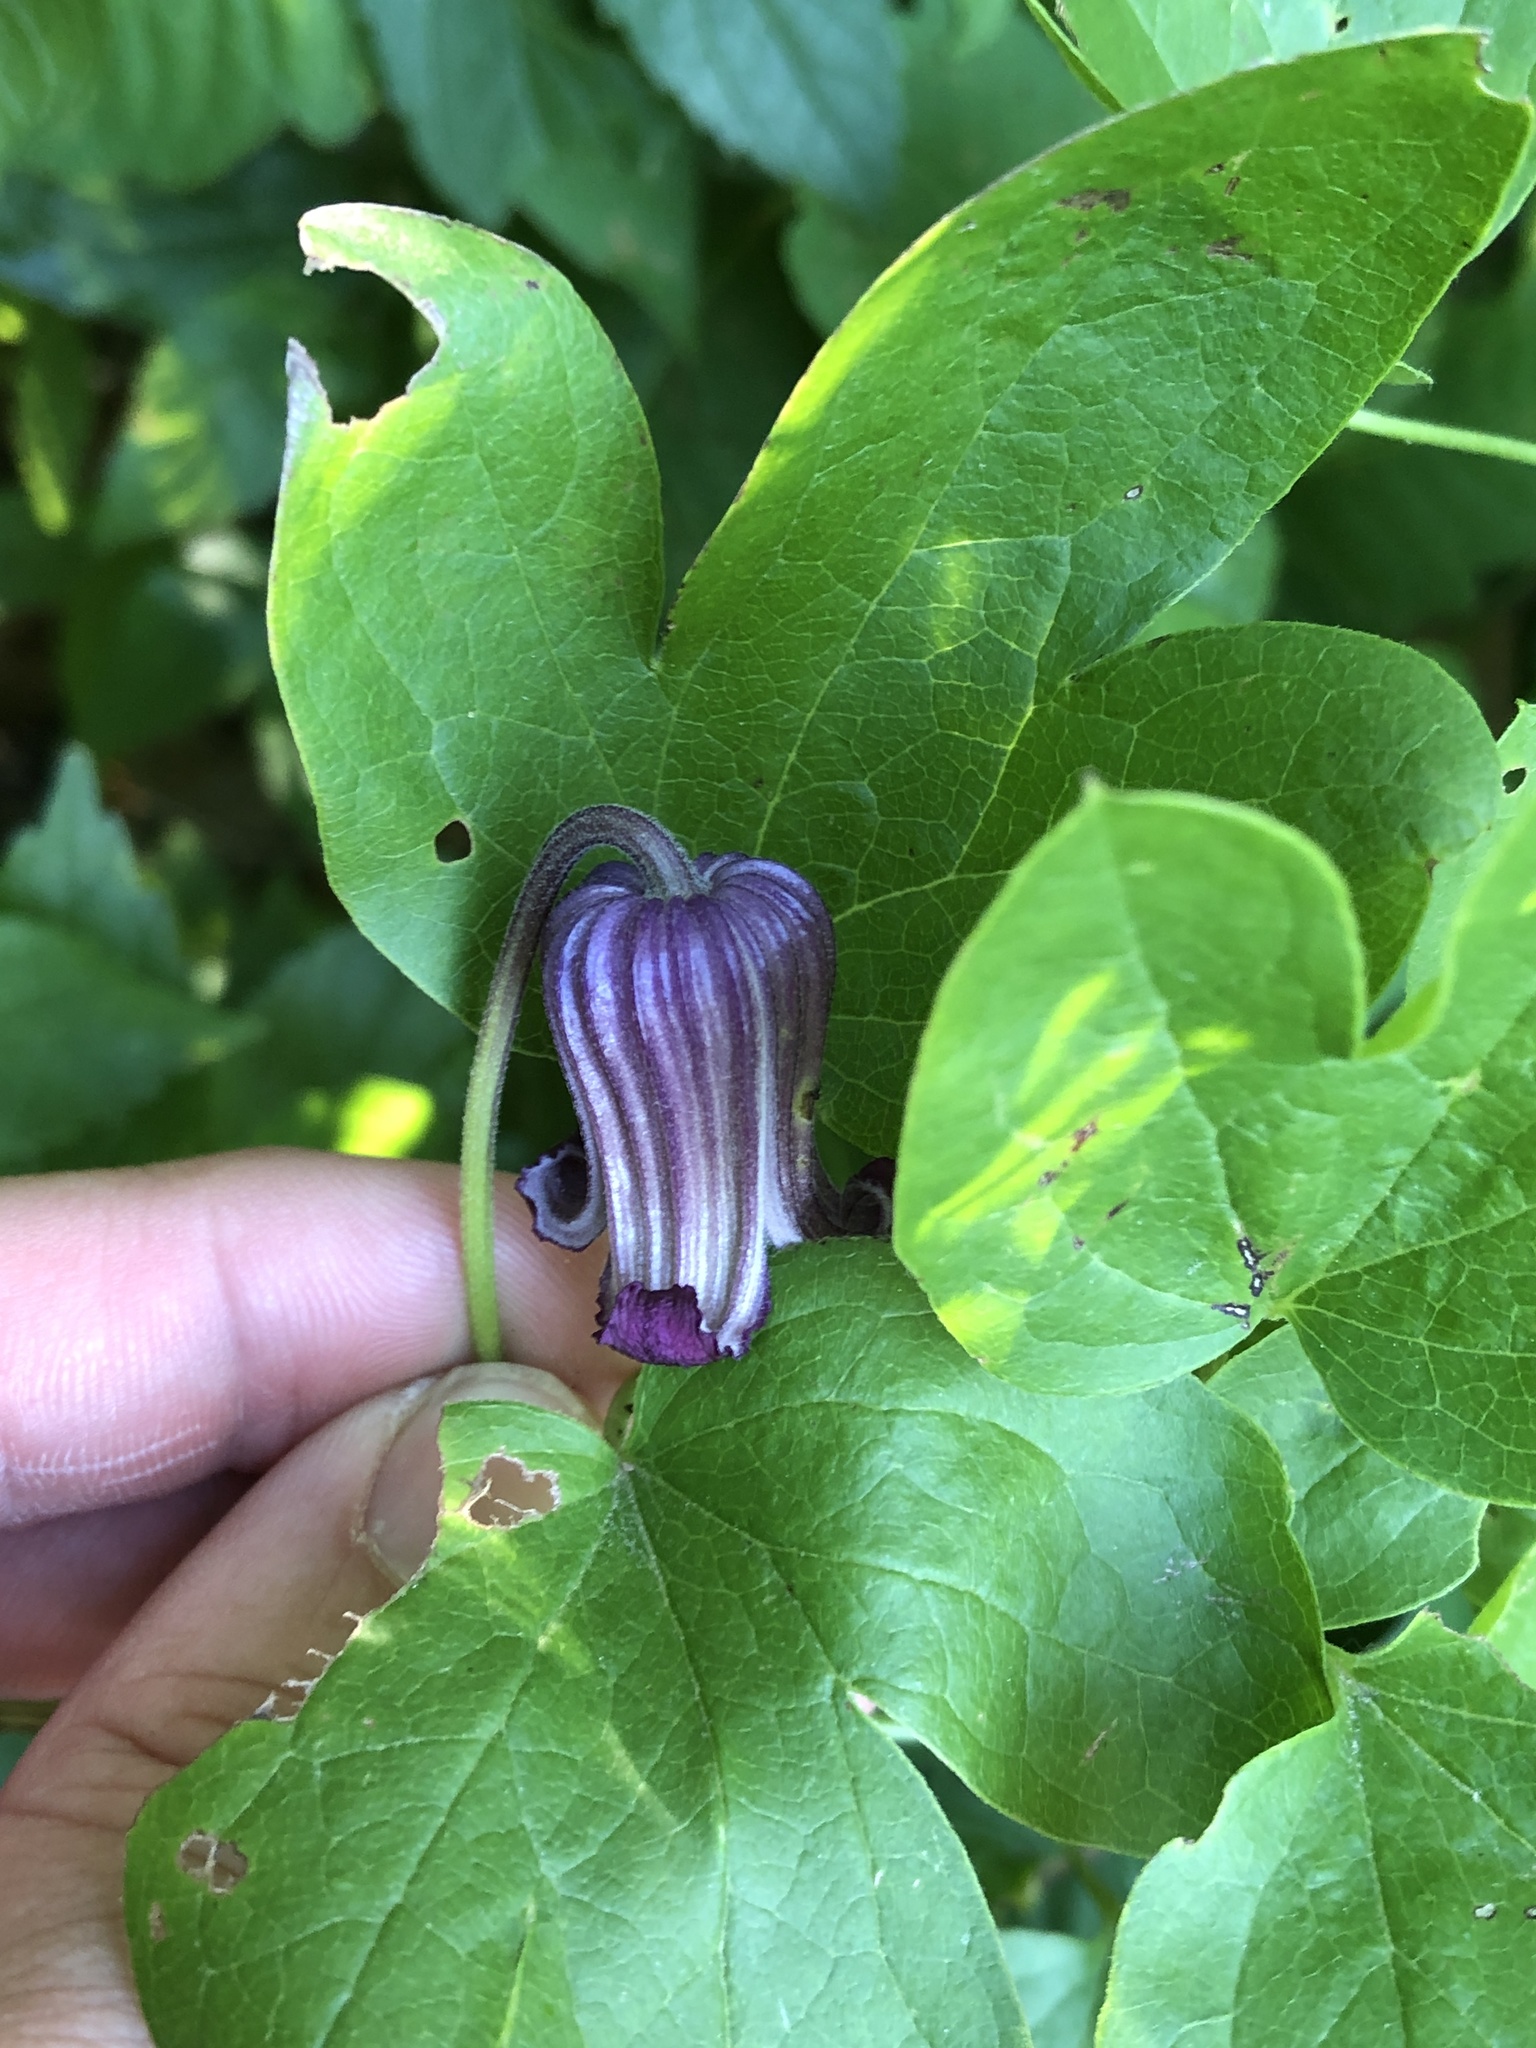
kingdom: Plantae
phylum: Tracheophyta
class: Magnoliopsida
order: Ranunculales
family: Ranunculaceae
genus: Clematis
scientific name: Clematis pitcheri
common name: Bellflower clematis
